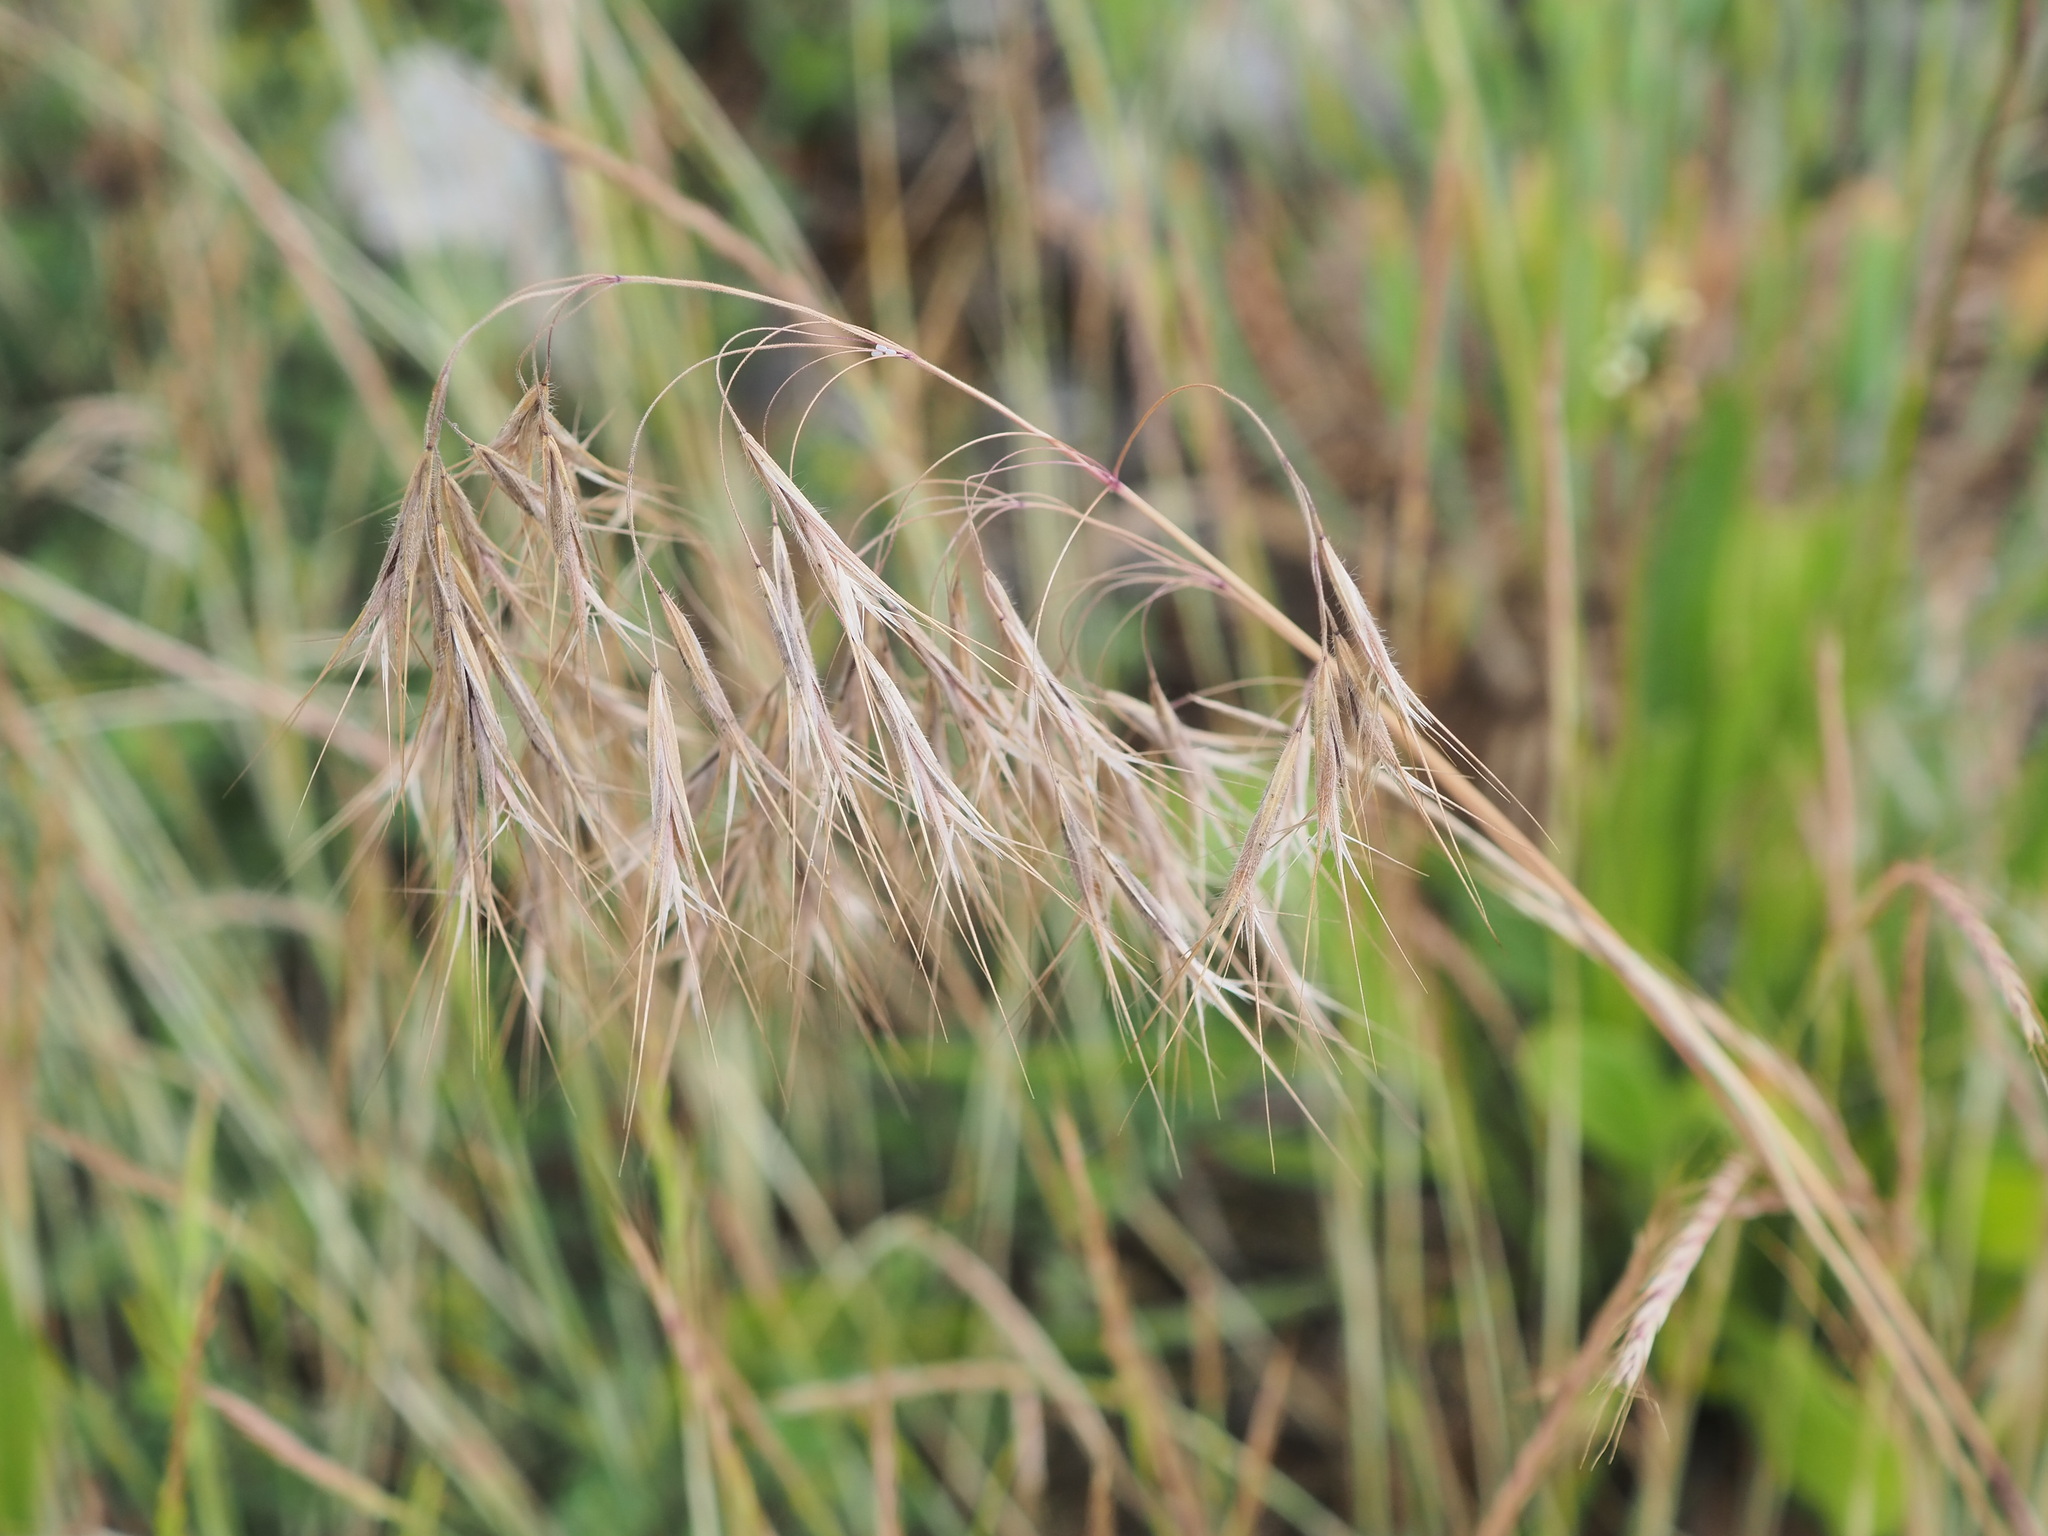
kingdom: Plantae
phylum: Tracheophyta
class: Liliopsida
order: Poales
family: Poaceae
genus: Bromus
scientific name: Bromus tectorum
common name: Cheatgrass
